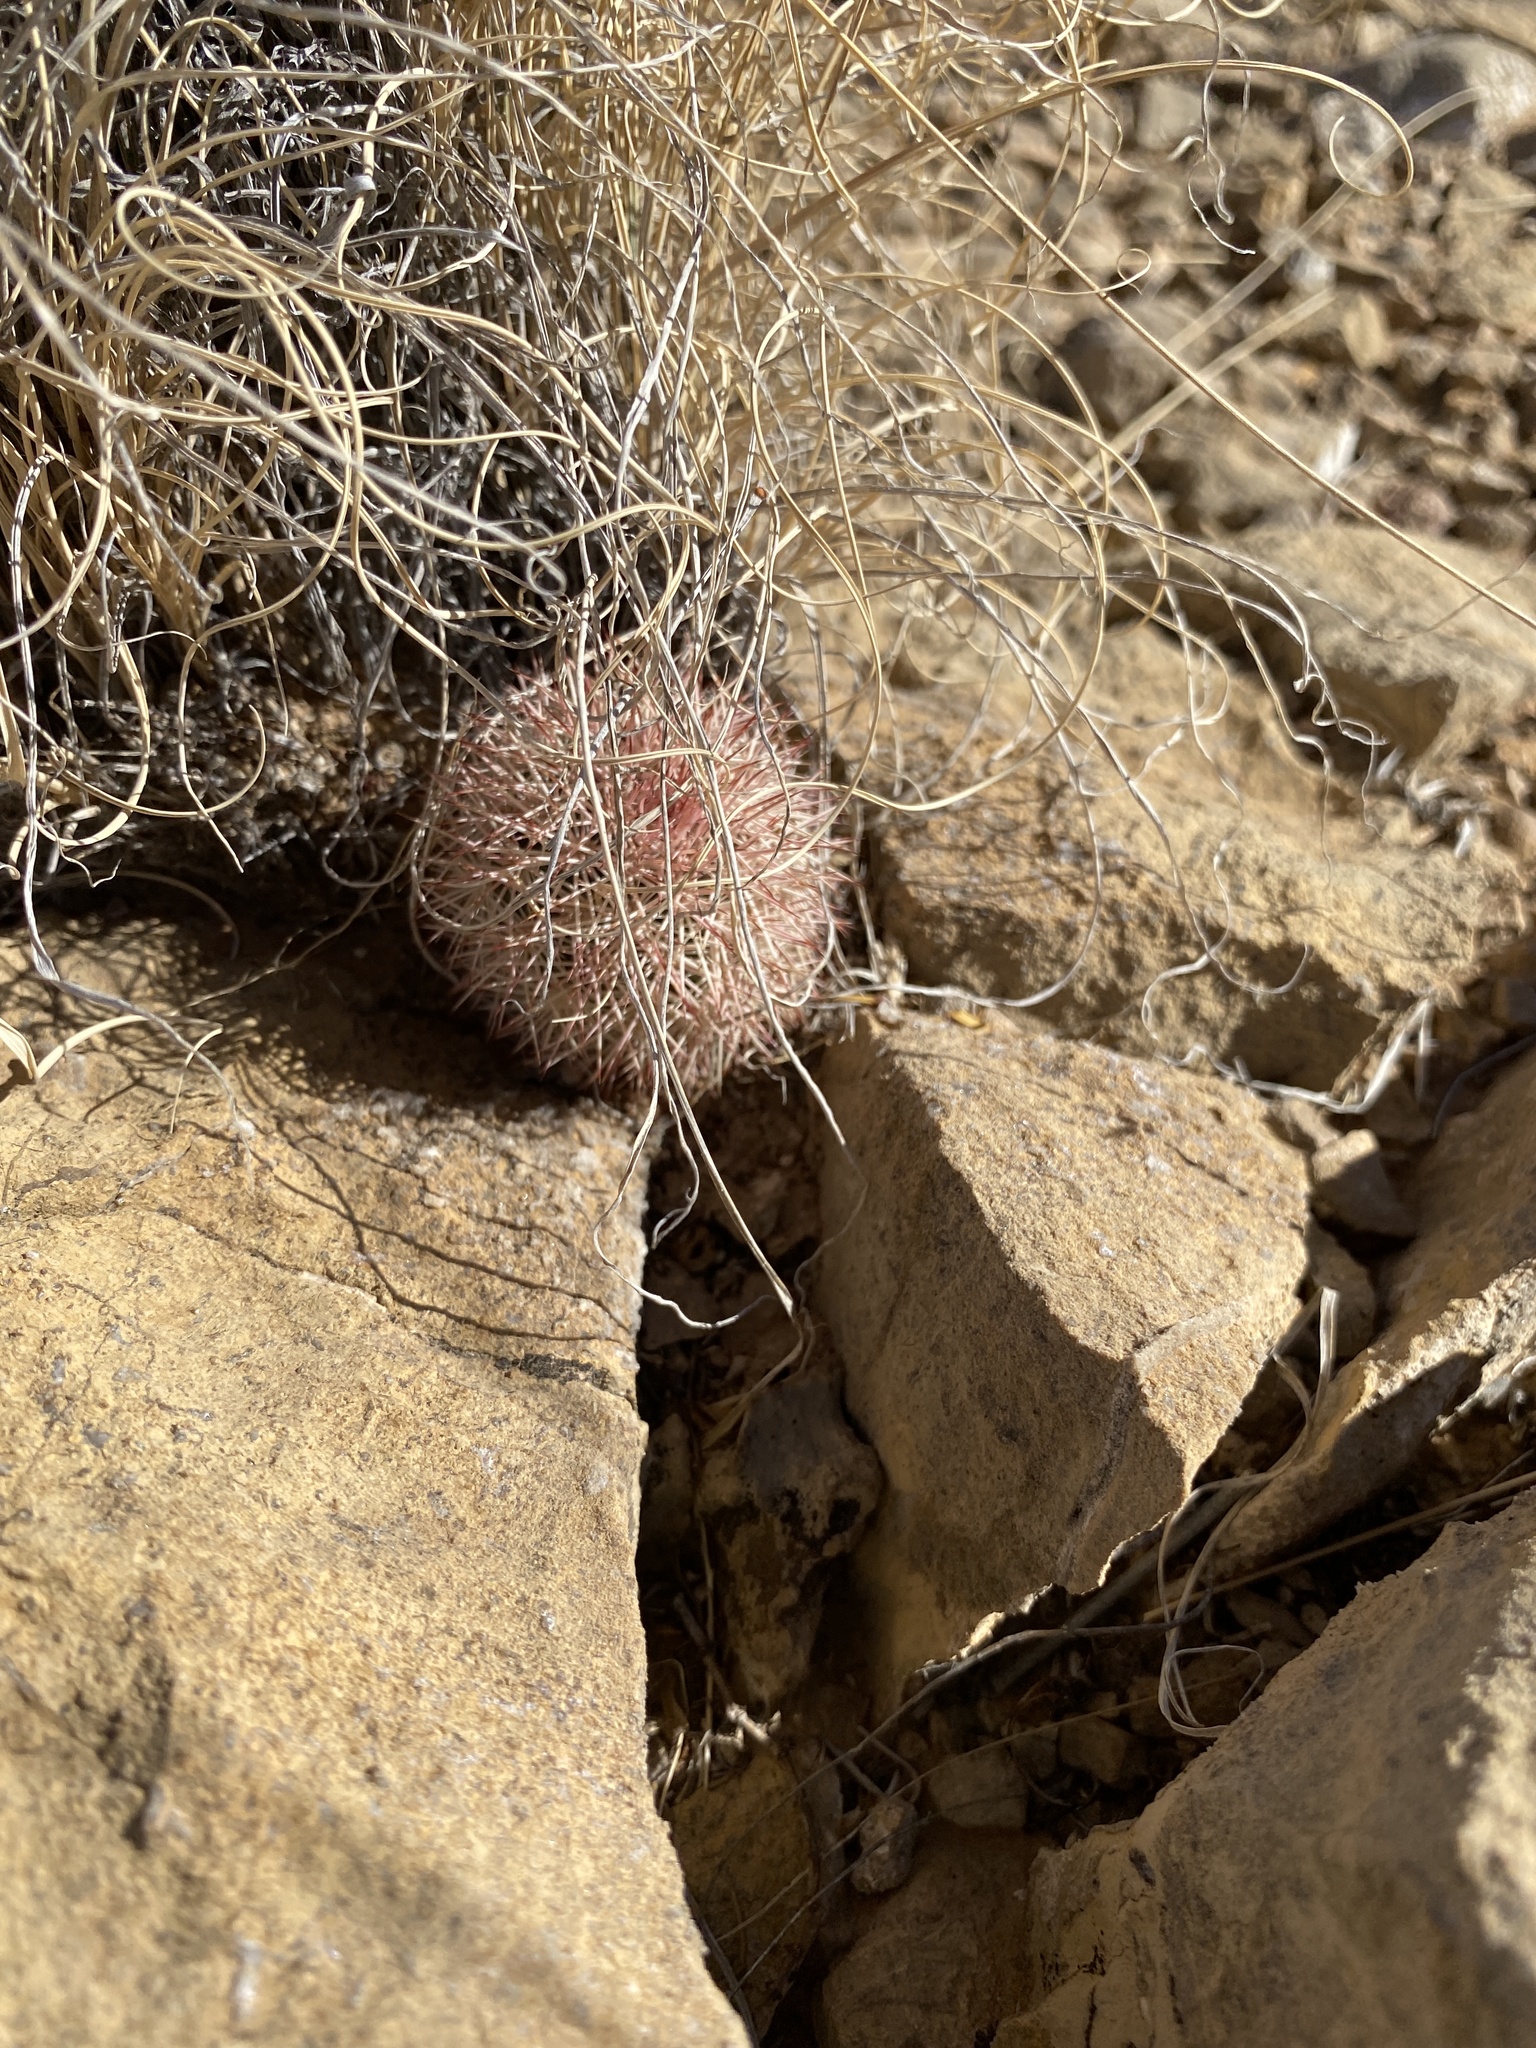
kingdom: Plantae
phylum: Tracheophyta
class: Magnoliopsida
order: Caryophyllales
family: Cactaceae
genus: Echinocereus
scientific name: Echinocereus dasyacanthus
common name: Spiny hedgehog cactus
